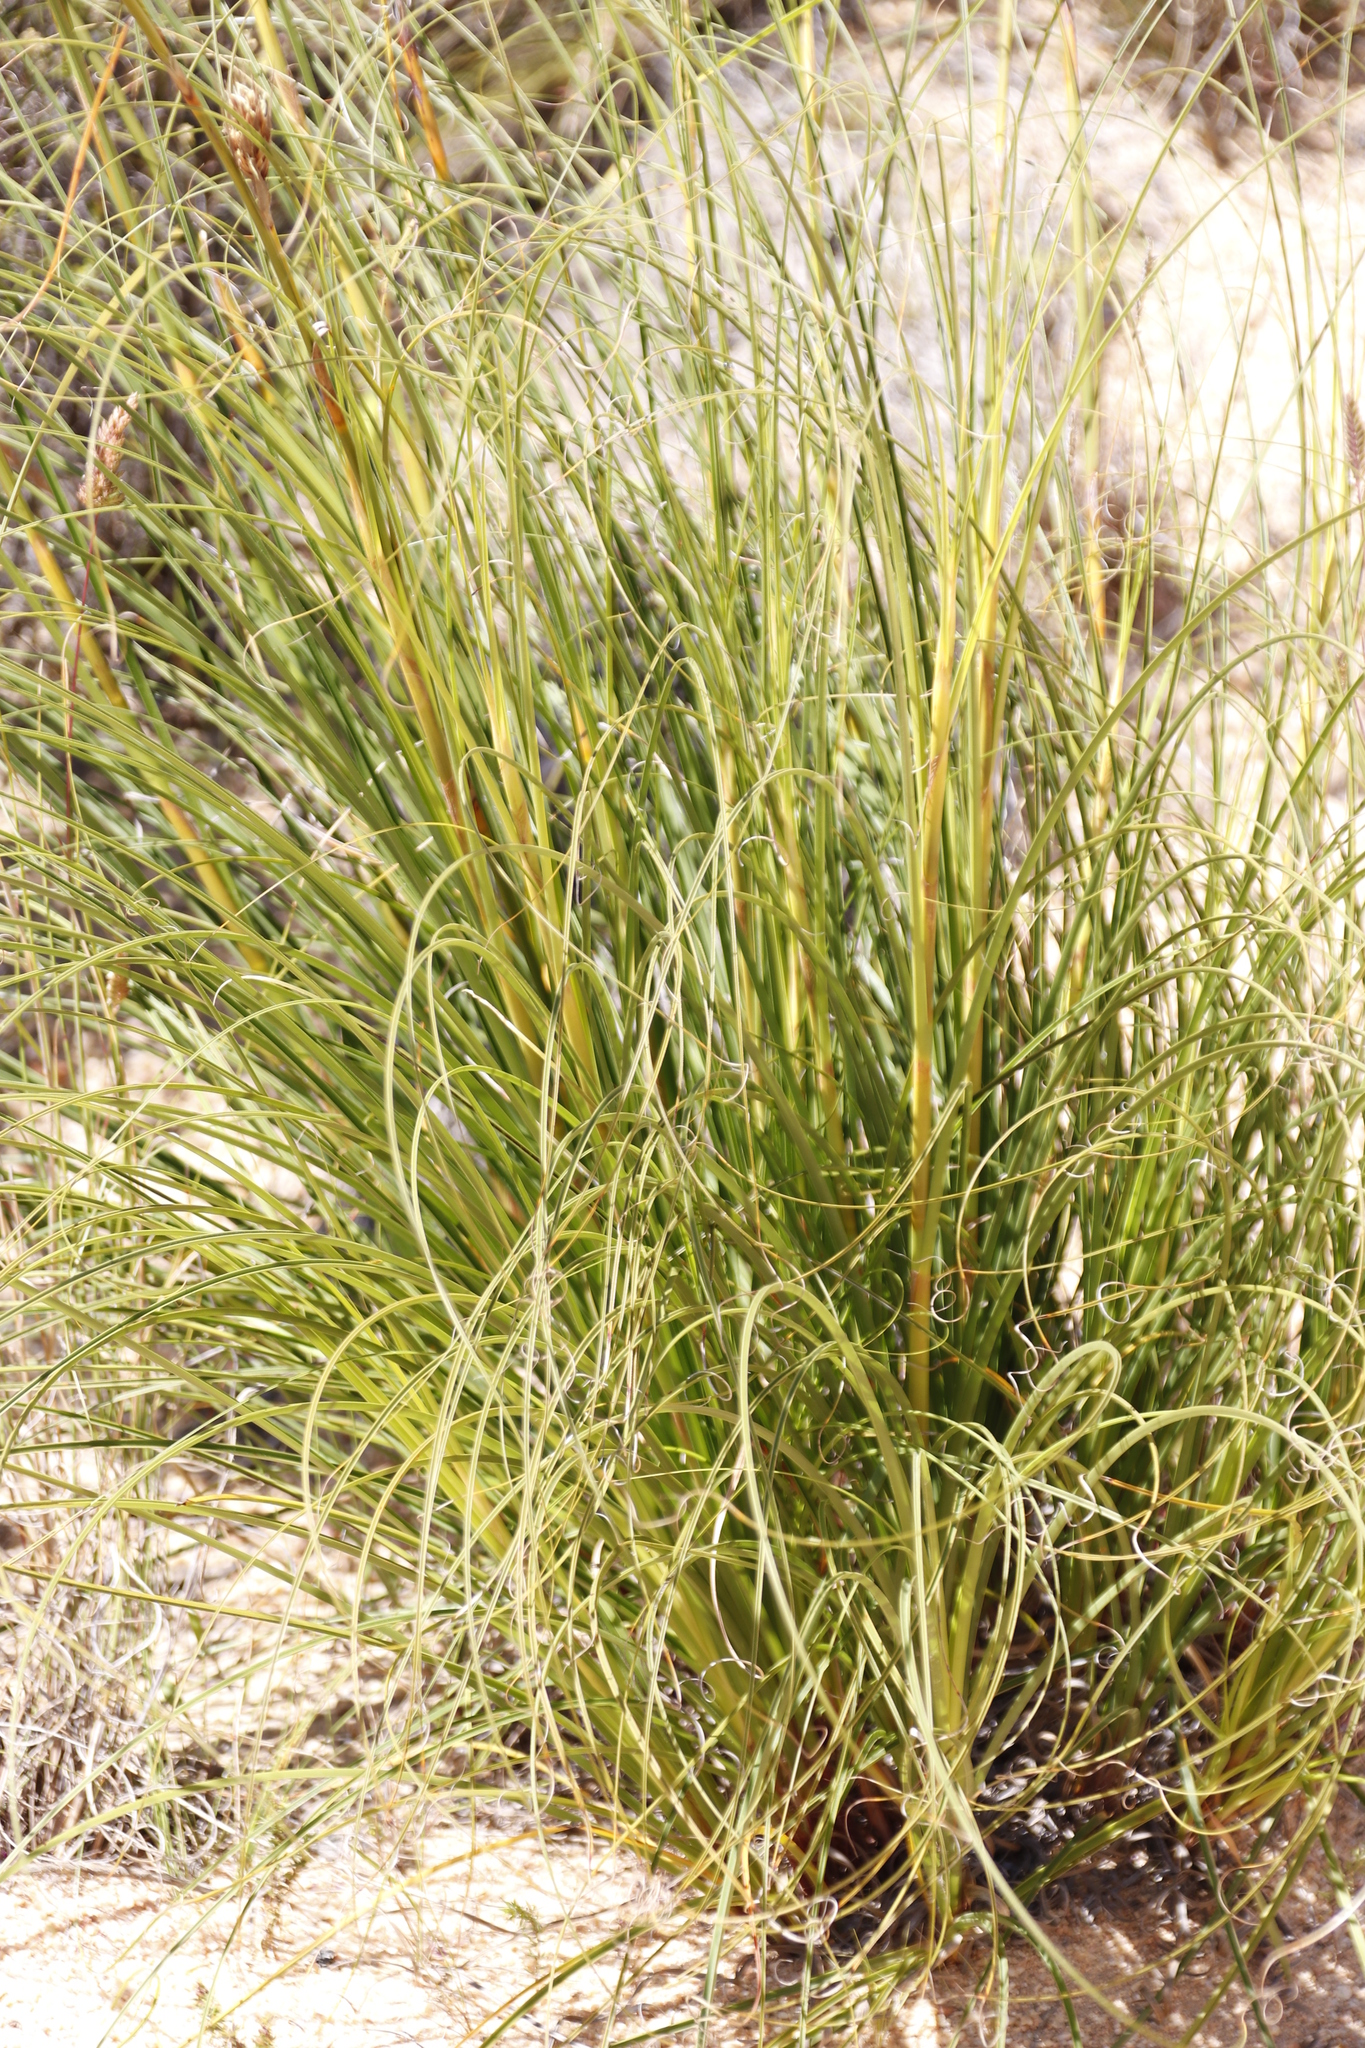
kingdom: Plantae
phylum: Tracheophyta
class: Liliopsida
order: Poales
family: Cyperaceae
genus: Tetraria
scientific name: Tetraria bromoides
